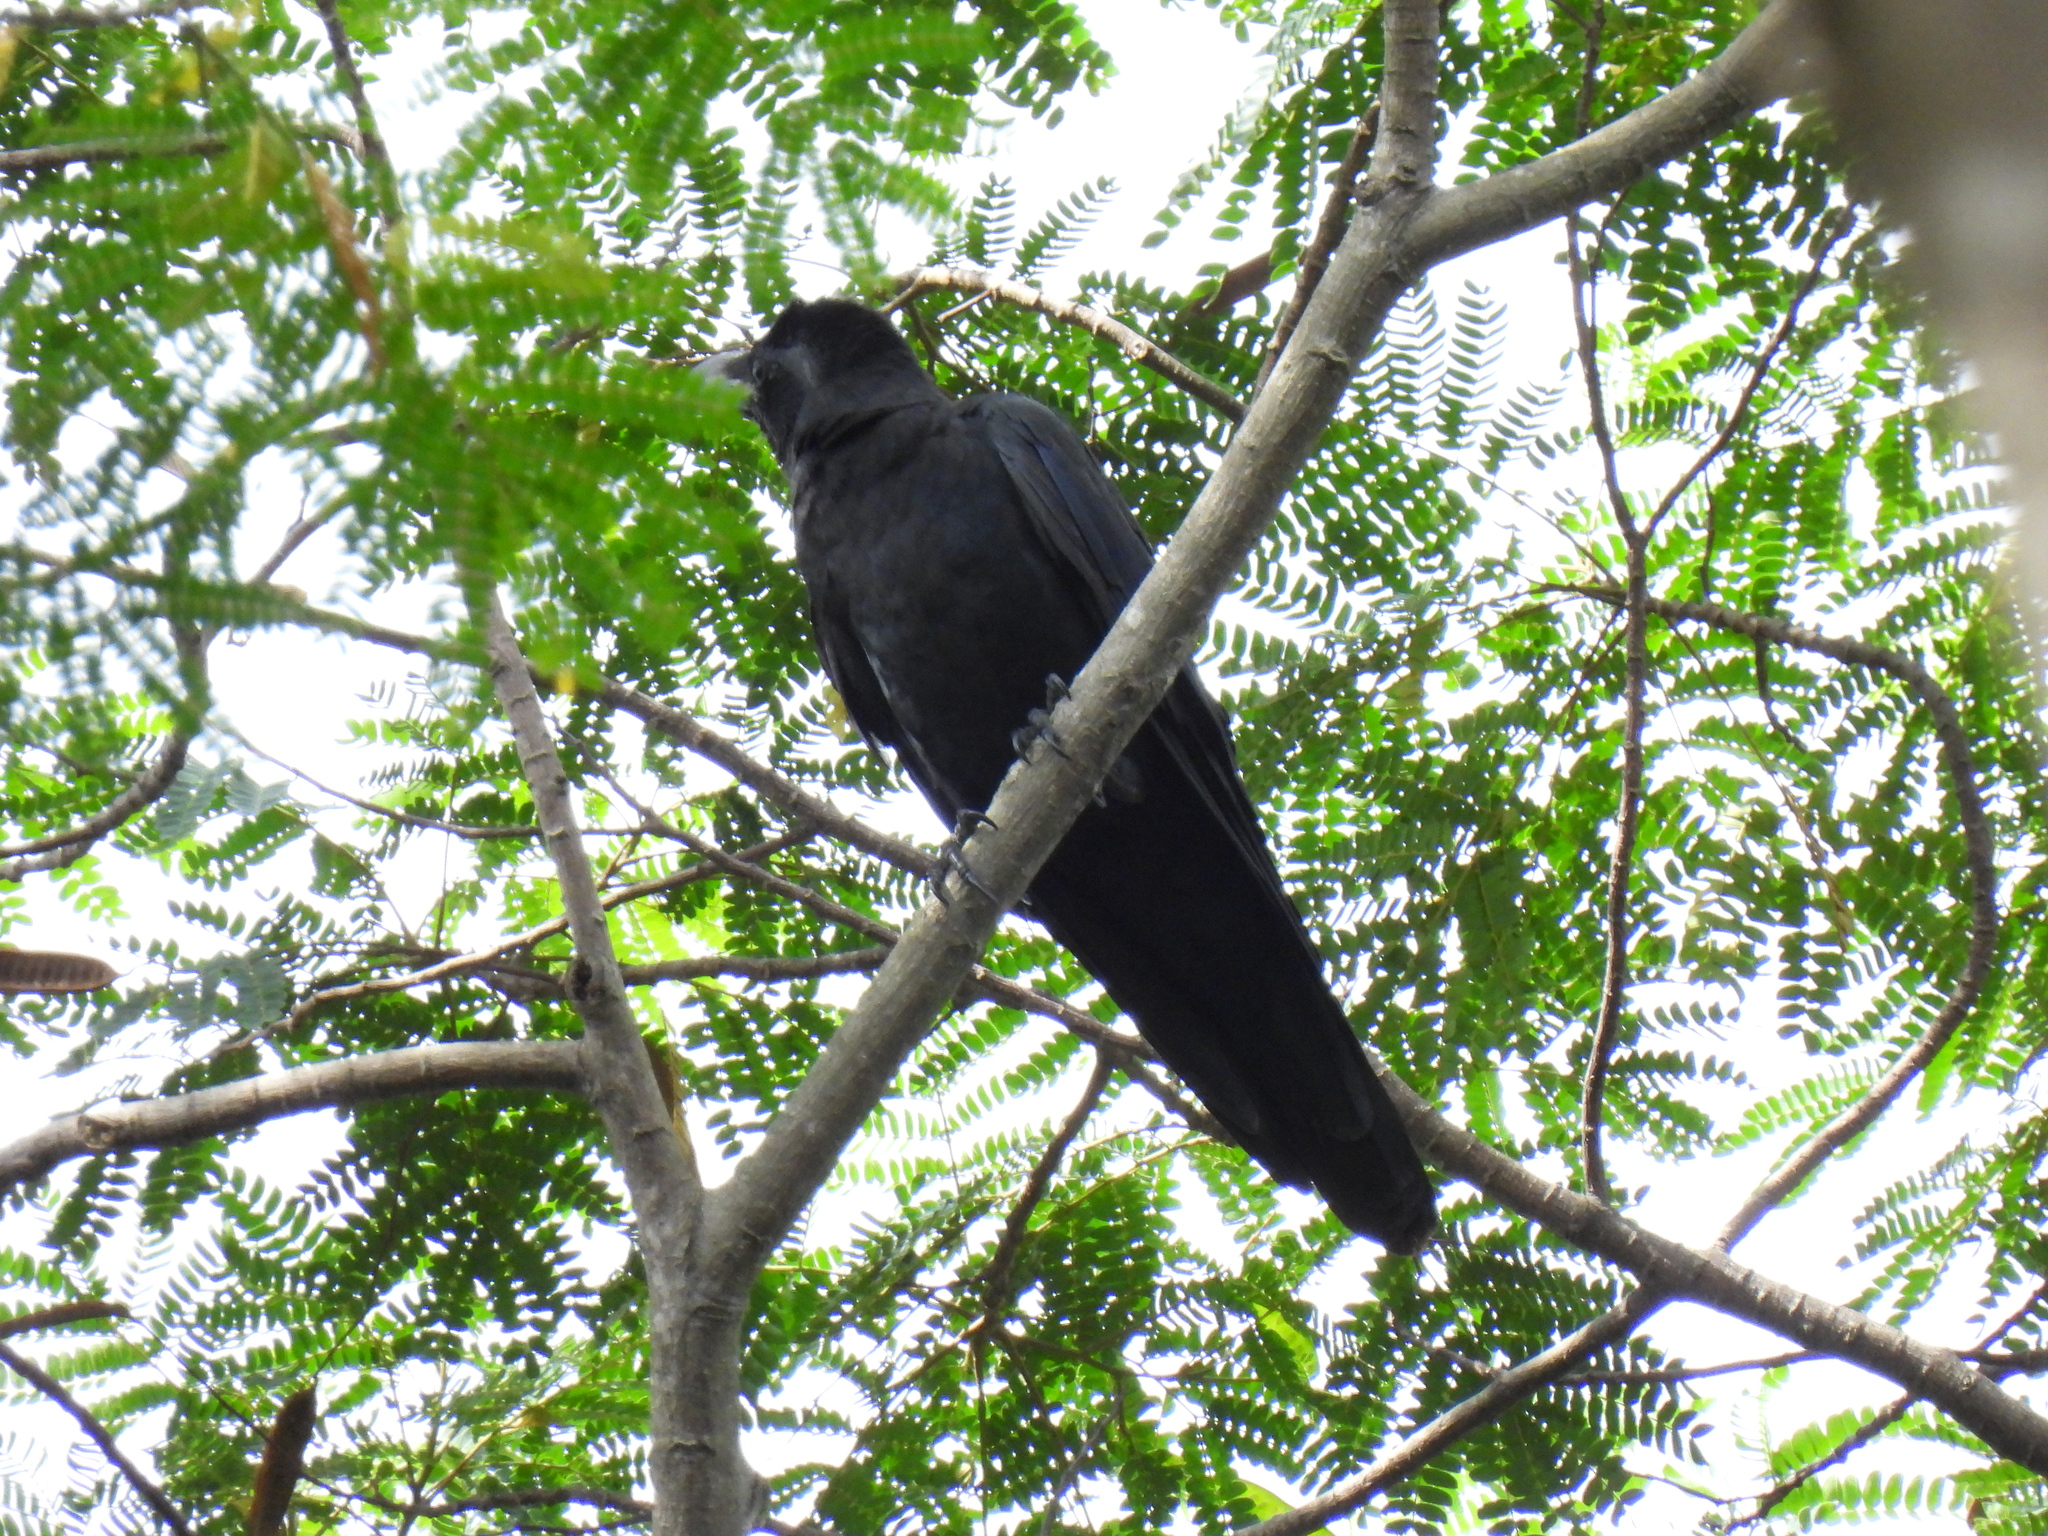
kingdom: Animalia
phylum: Chordata
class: Aves
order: Passeriformes
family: Corvidae
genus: Corvus
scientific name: Corvus macrorhynchos
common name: Large-billed crow
